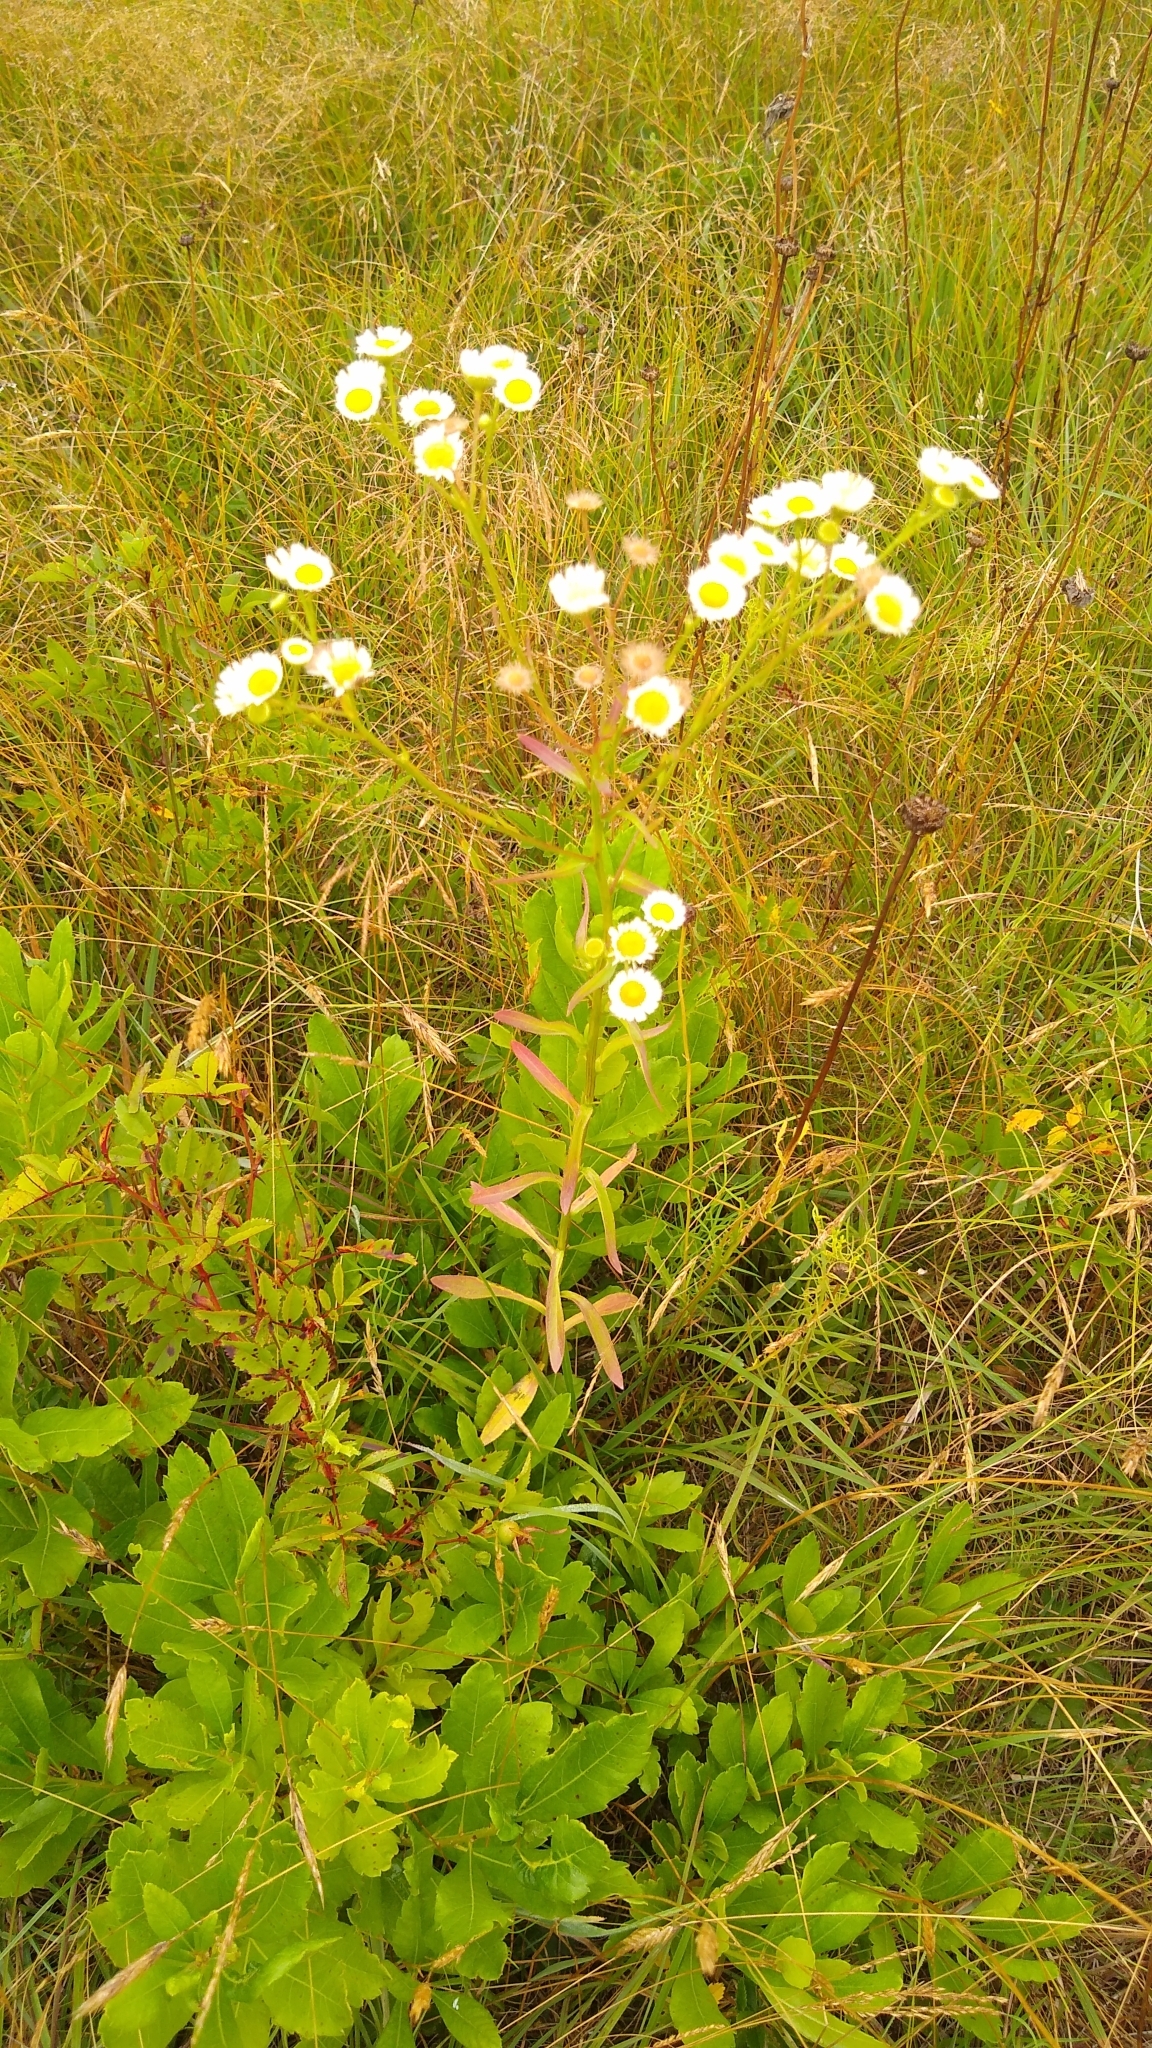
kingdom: Plantae
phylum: Tracheophyta
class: Magnoliopsida
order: Asterales
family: Asteraceae
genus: Erigeron
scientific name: Erigeron strigosus
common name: Common eastern fleabane
